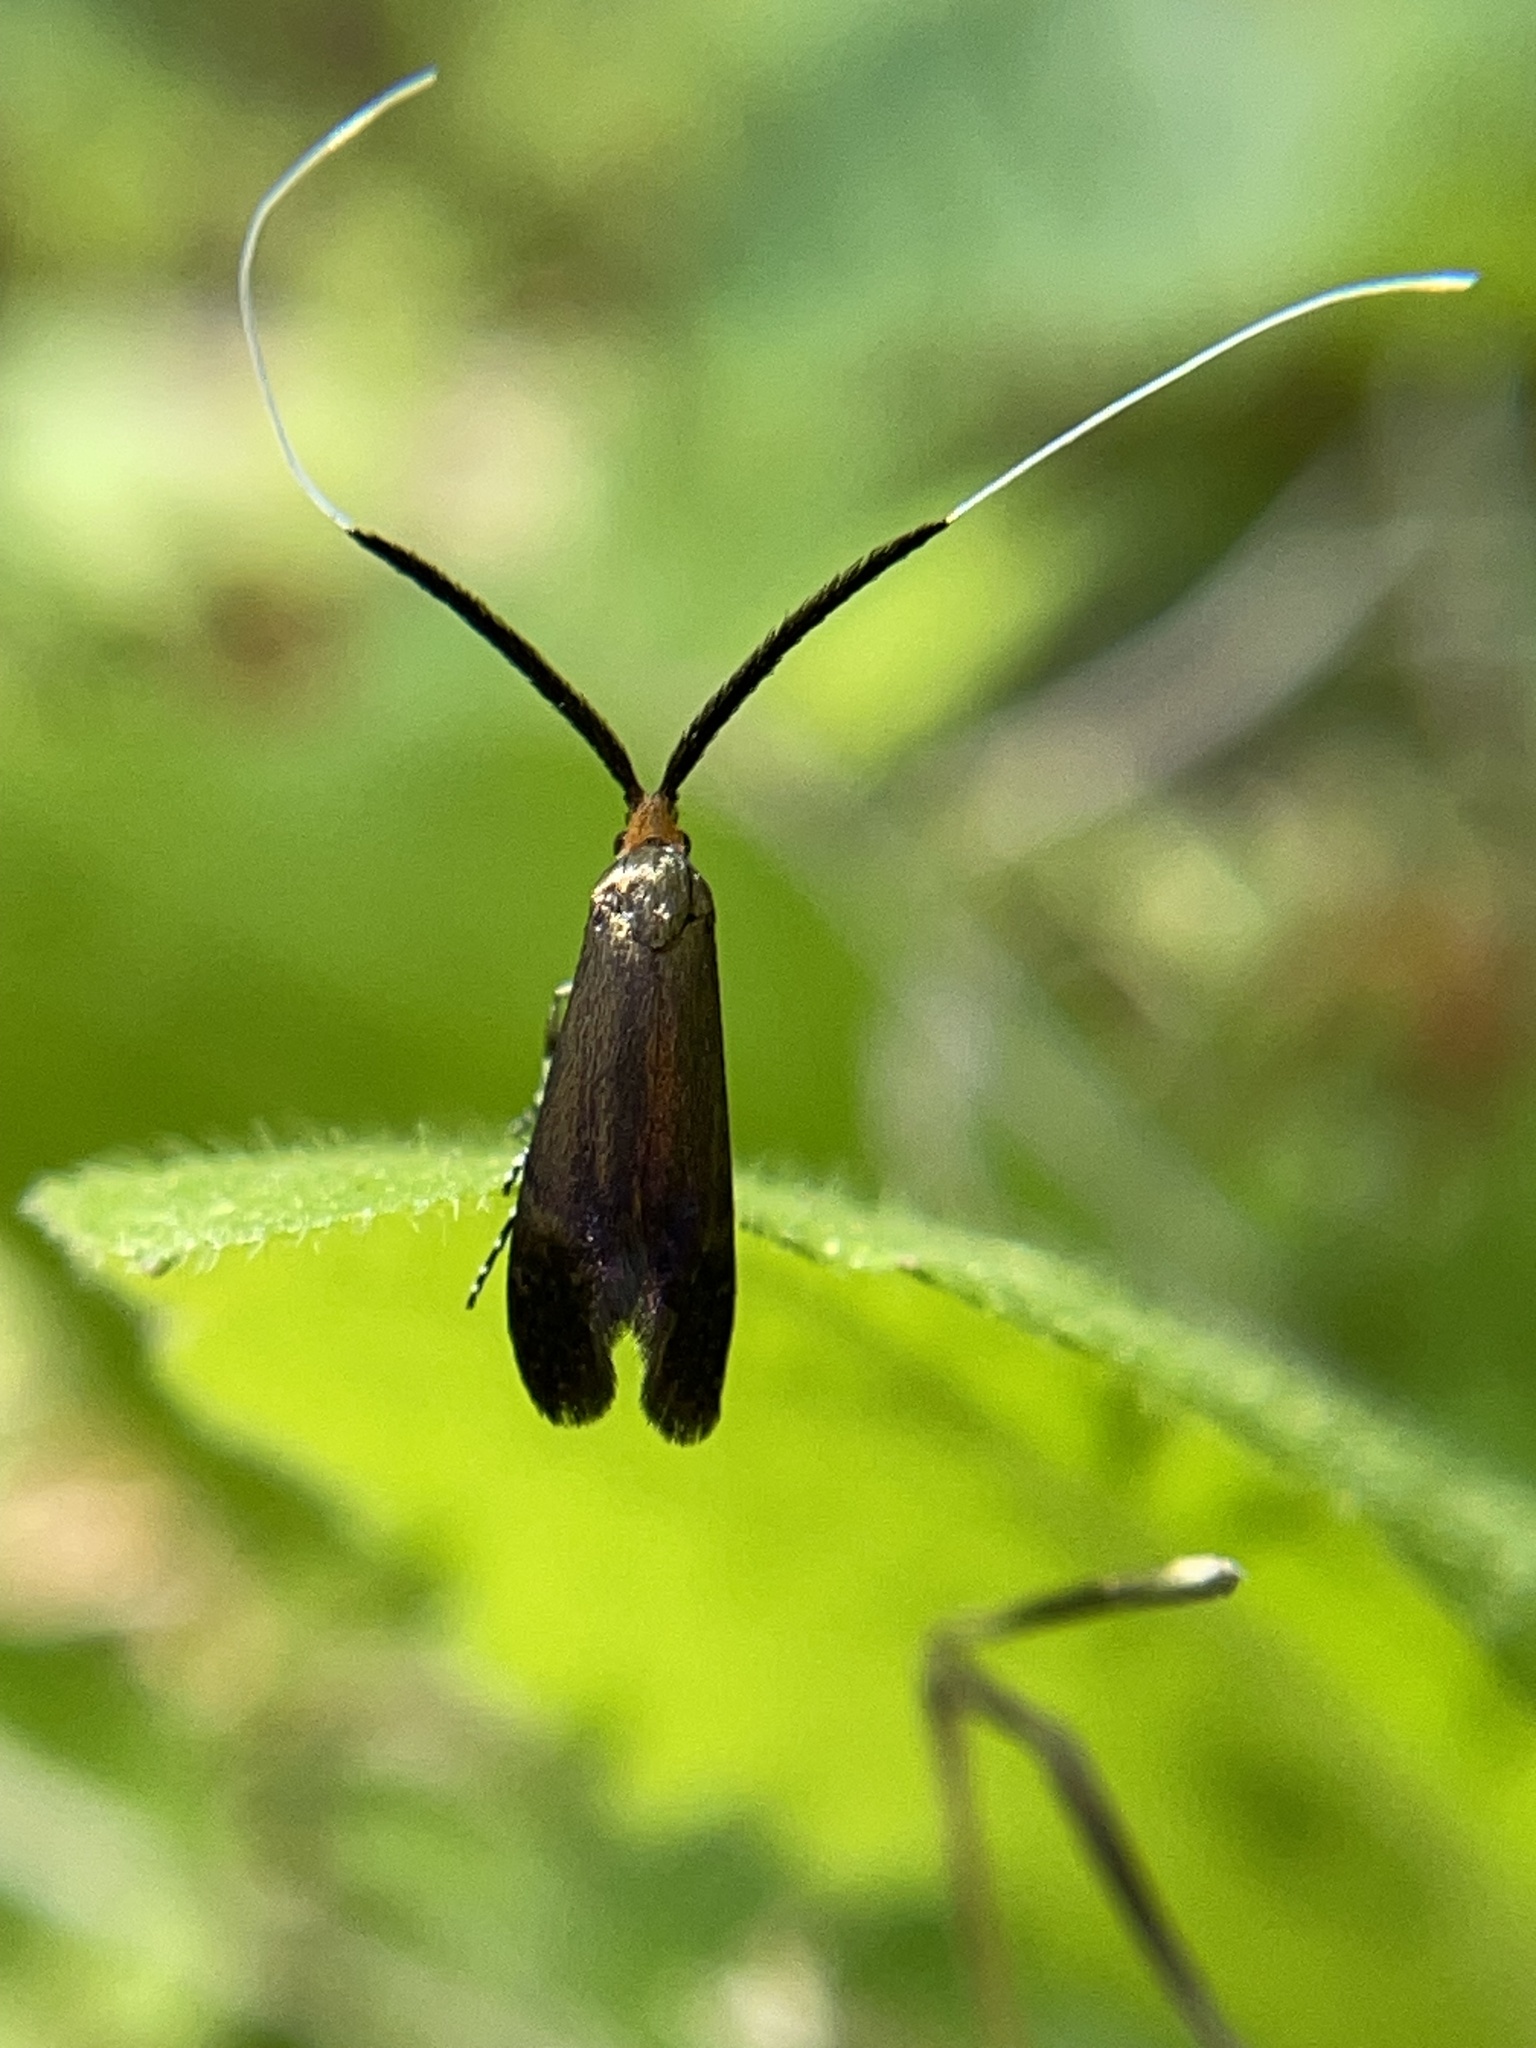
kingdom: Animalia
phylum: Arthropoda
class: Insecta
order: Lepidoptera
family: Adelidae
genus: Adela
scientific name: Adela caeruleella
